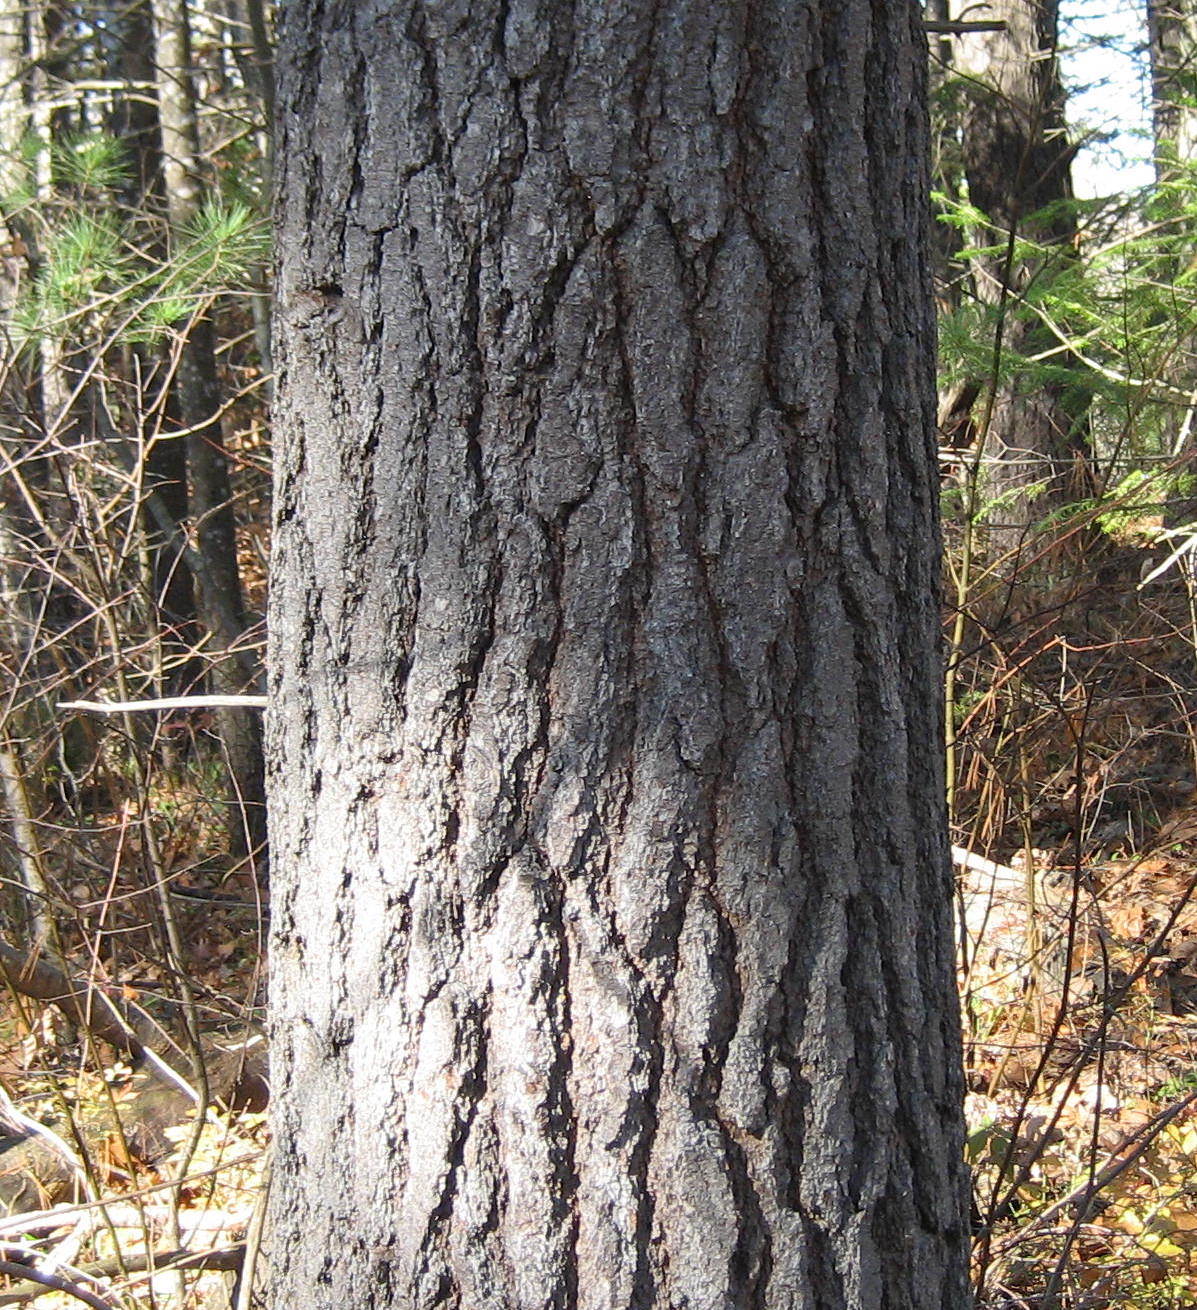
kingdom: Plantae
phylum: Tracheophyta
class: Pinopsida
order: Pinales
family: Pinaceae
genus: Pinus
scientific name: Pinus strobus
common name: Weymouth pine
